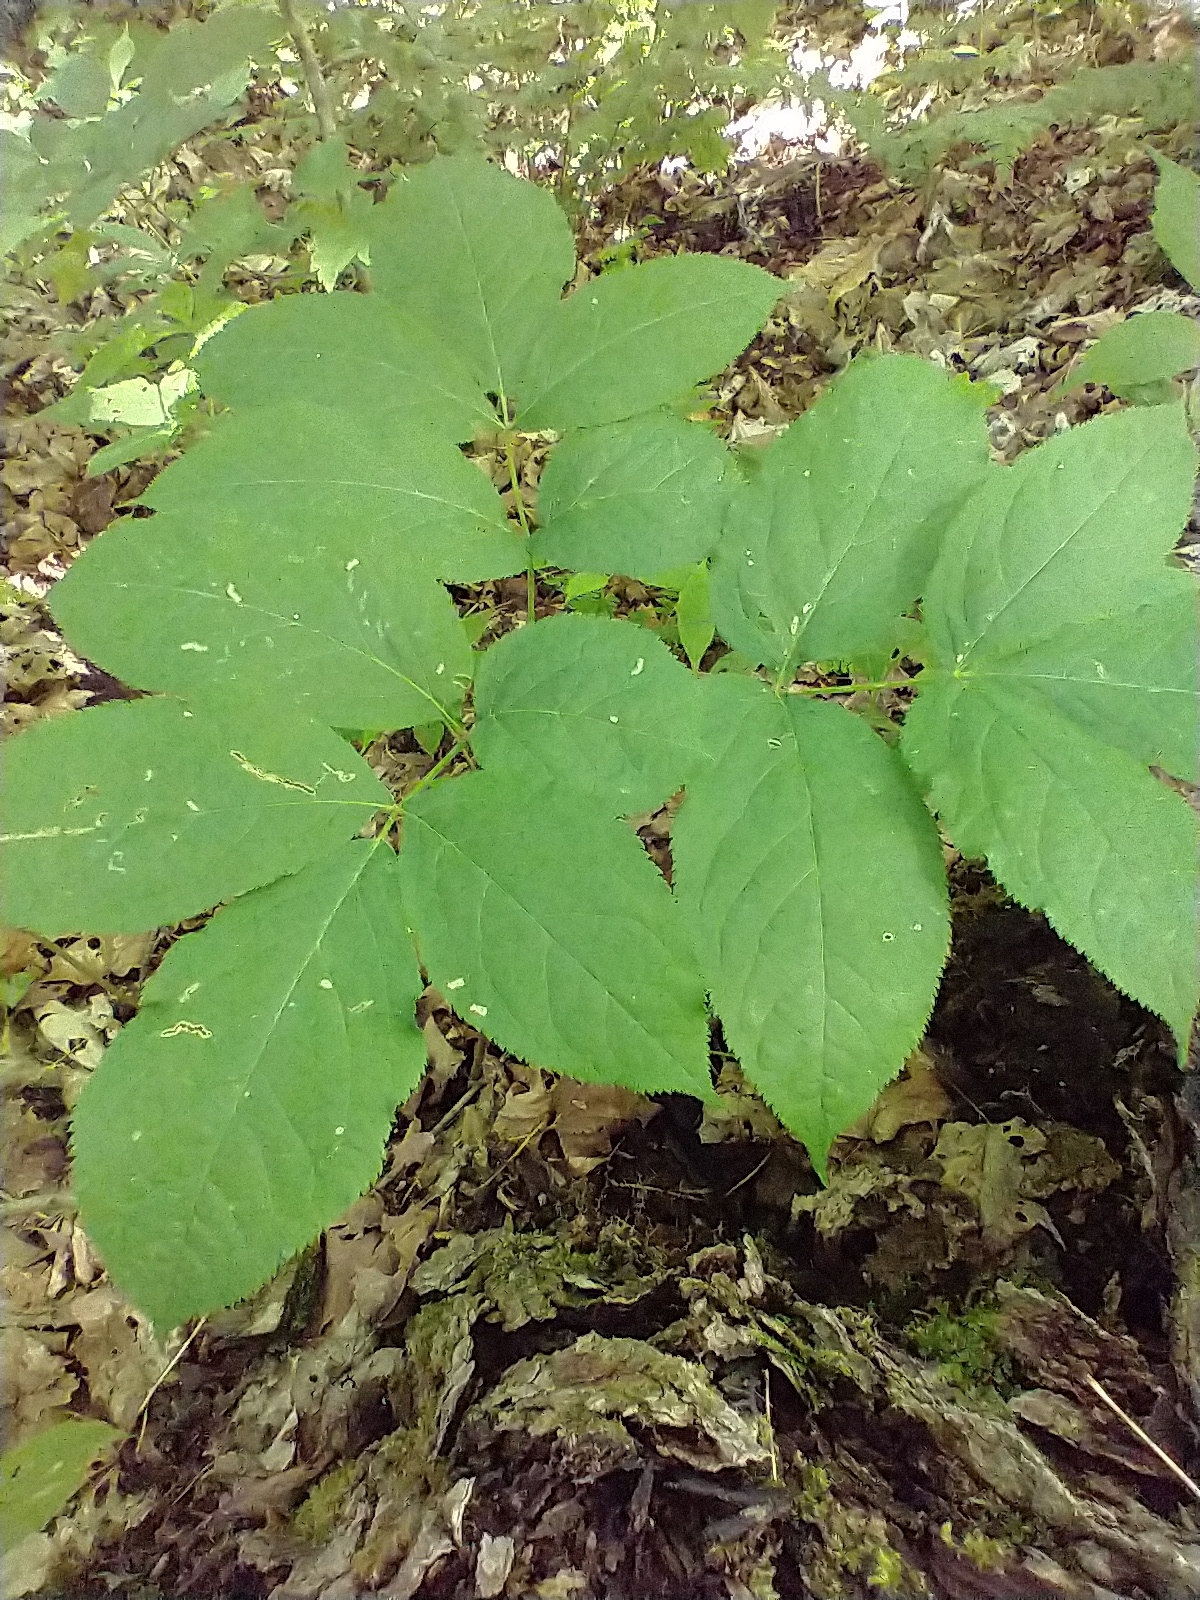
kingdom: Plantae
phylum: Tracheophyta
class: Magnoliopsida
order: Apiales
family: Araliaceae
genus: Aralia
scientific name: Aralia nudicaulis
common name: Wild sarsaparilla
